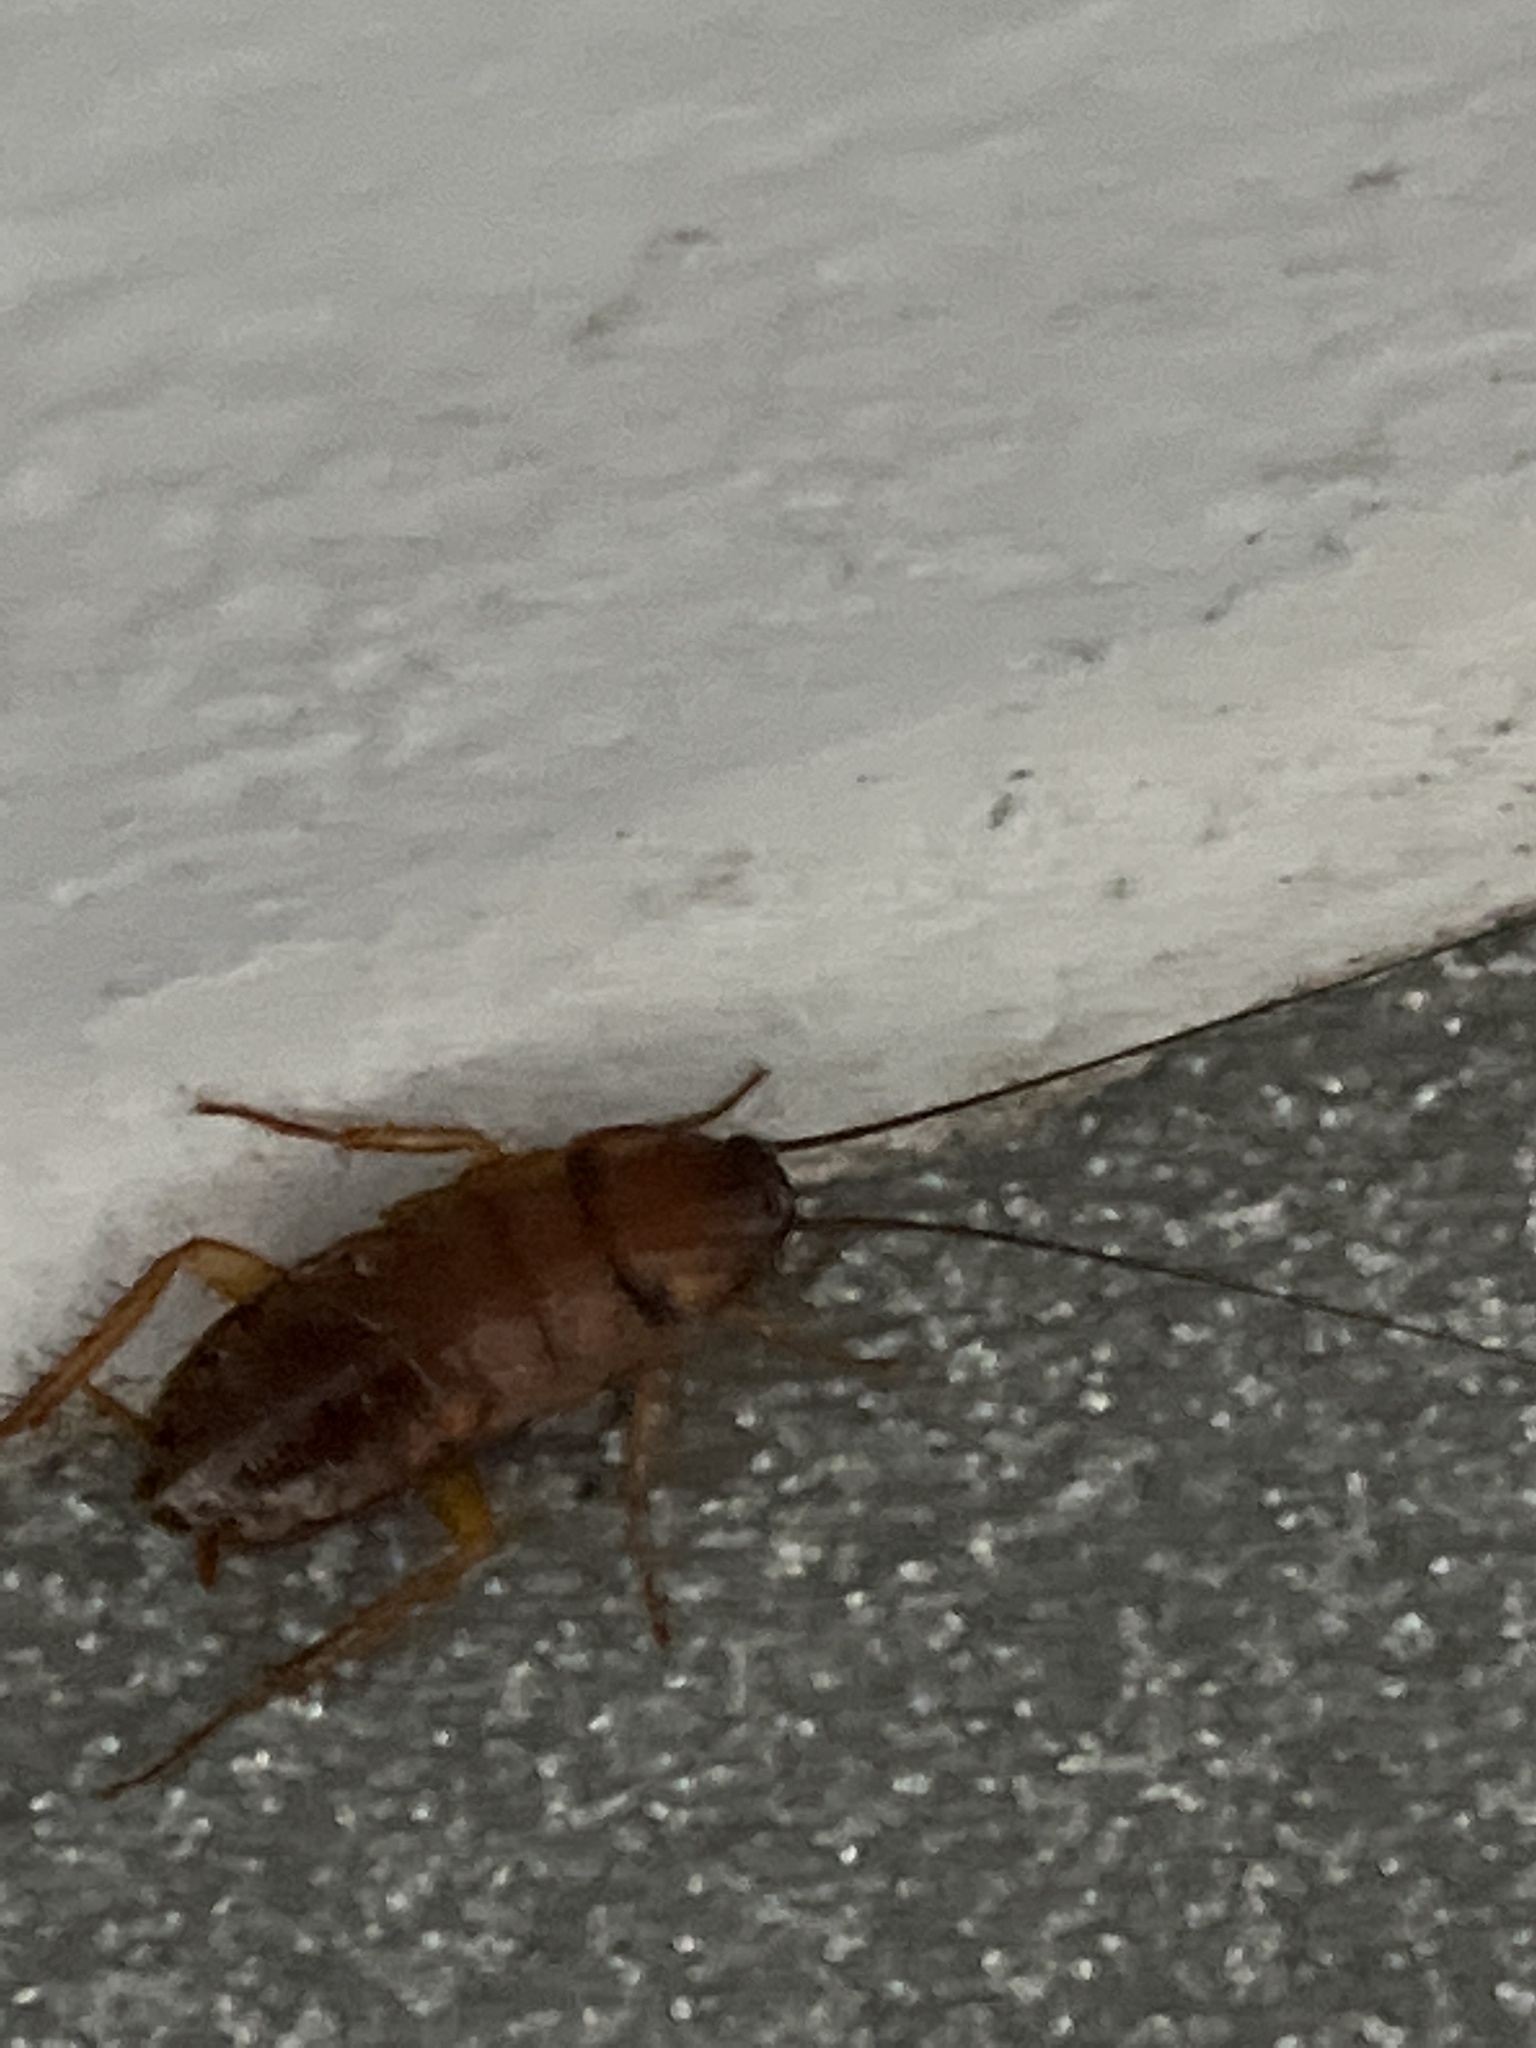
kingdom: Animalia
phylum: Arthropoda
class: Insecta
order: Blattodea
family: Blattidae
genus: Periplaneta
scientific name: Periplaneta americana
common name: American cockroach
